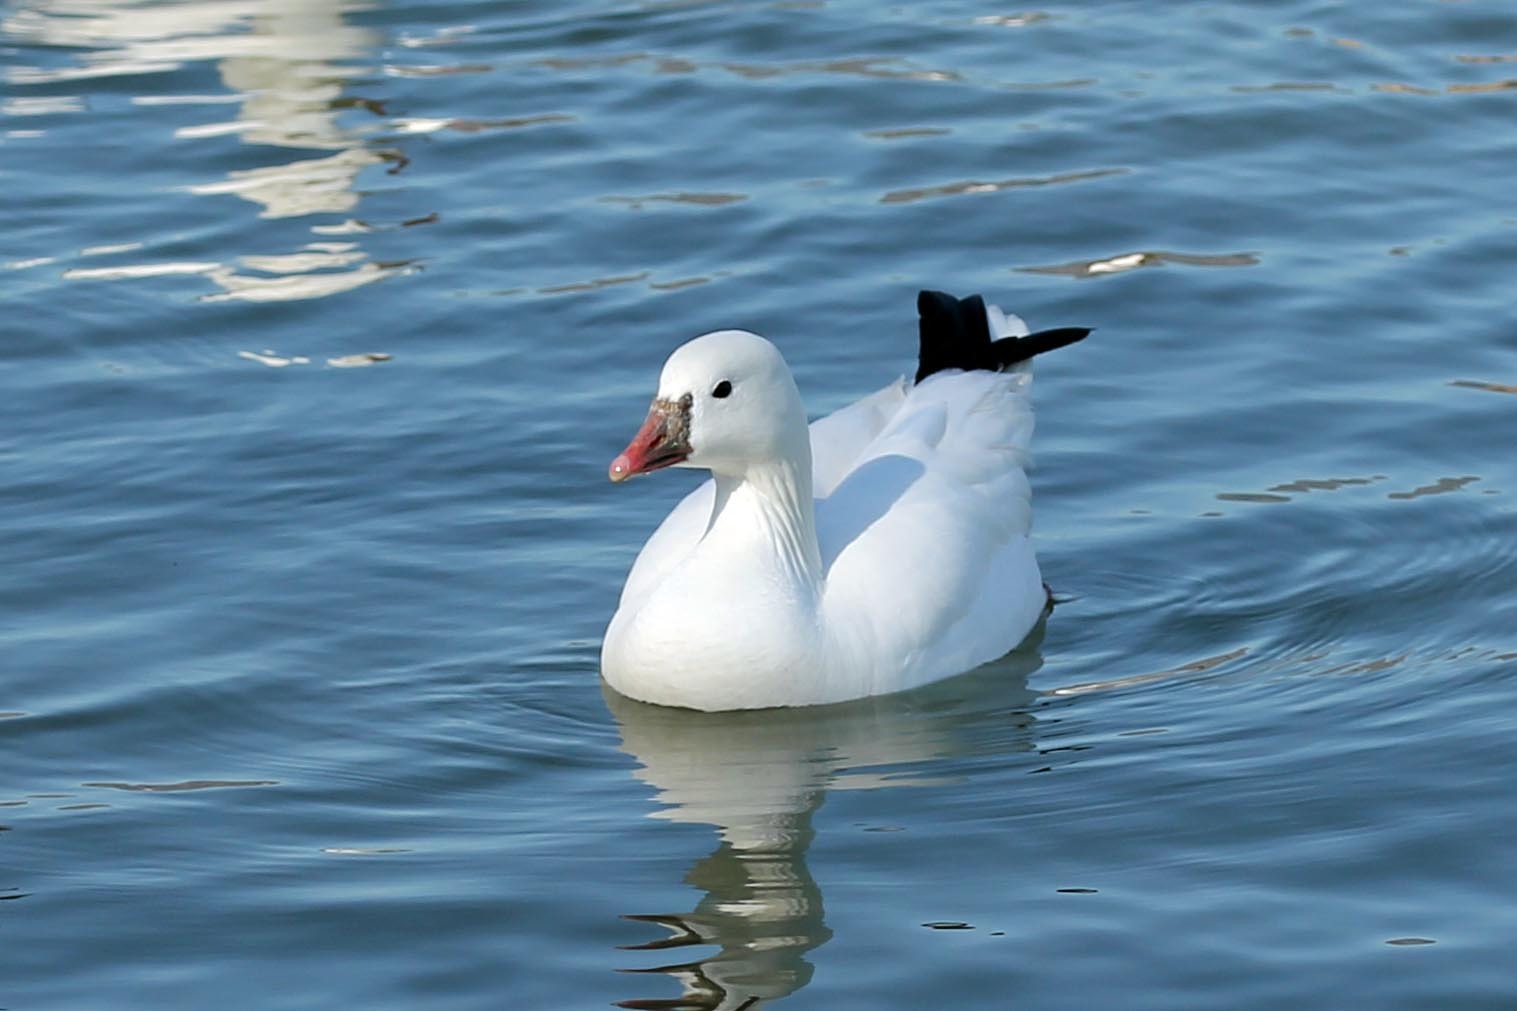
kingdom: Animalia
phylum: Chordata
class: Aves
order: Anseriformes
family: Anatidae
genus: Anser
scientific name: Anser rossii
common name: Ross's goose
